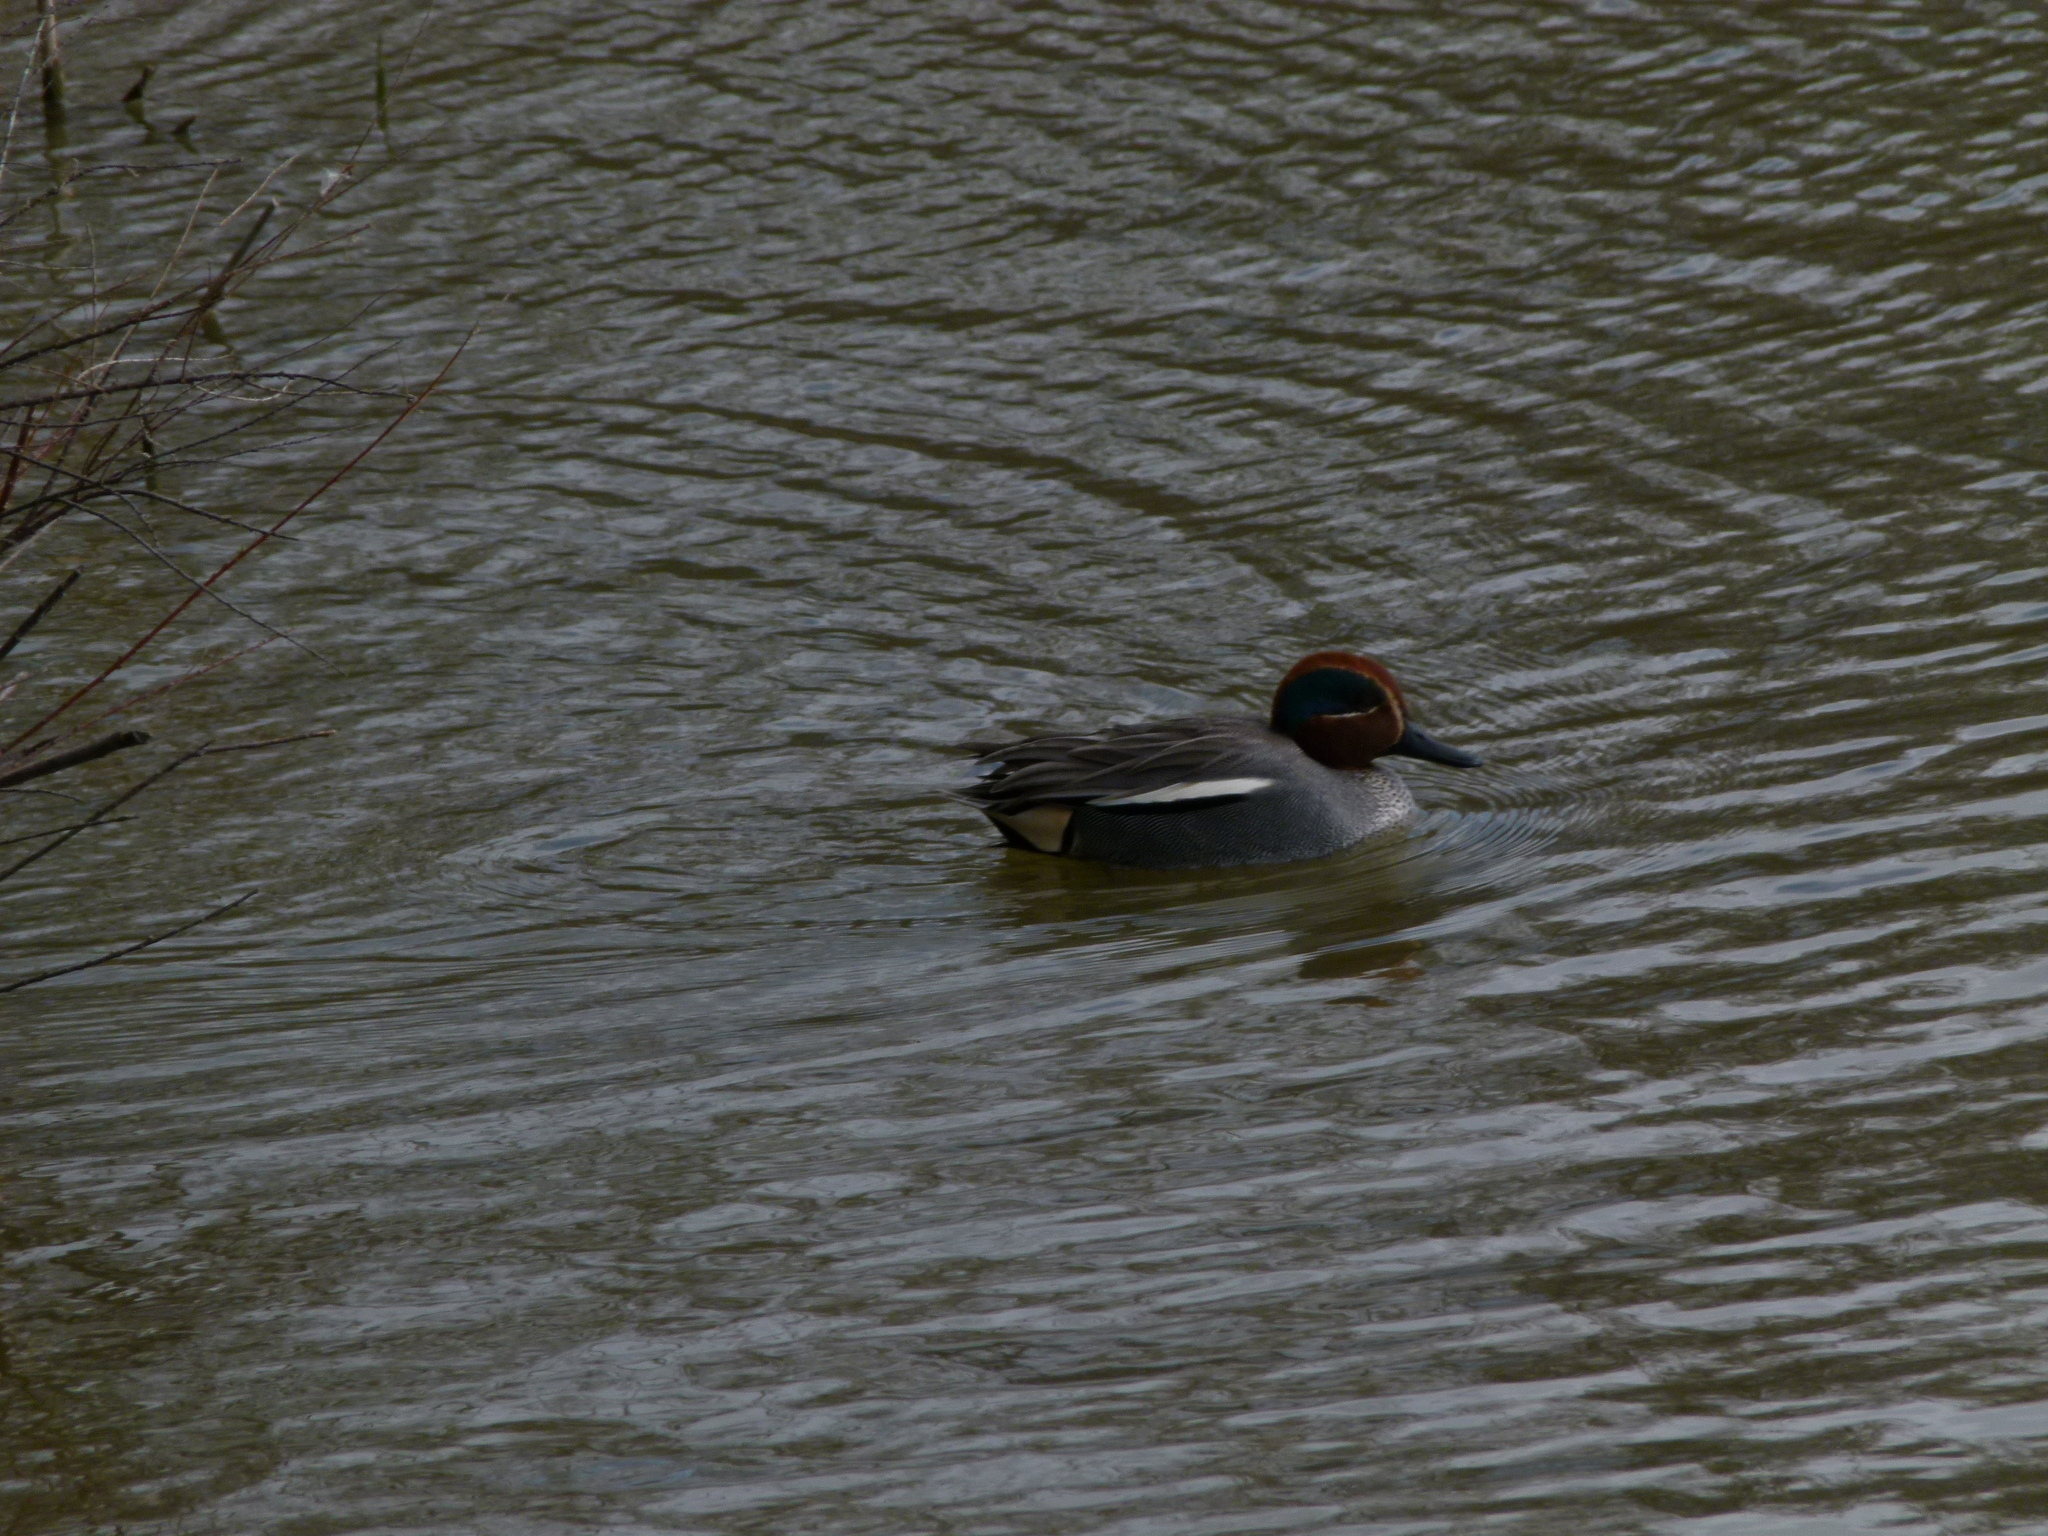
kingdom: Animalia
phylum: Chordata
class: Aves
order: Anseriformes
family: Anatidae
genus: Anas
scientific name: Anas crecca
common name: Eurasian teal
